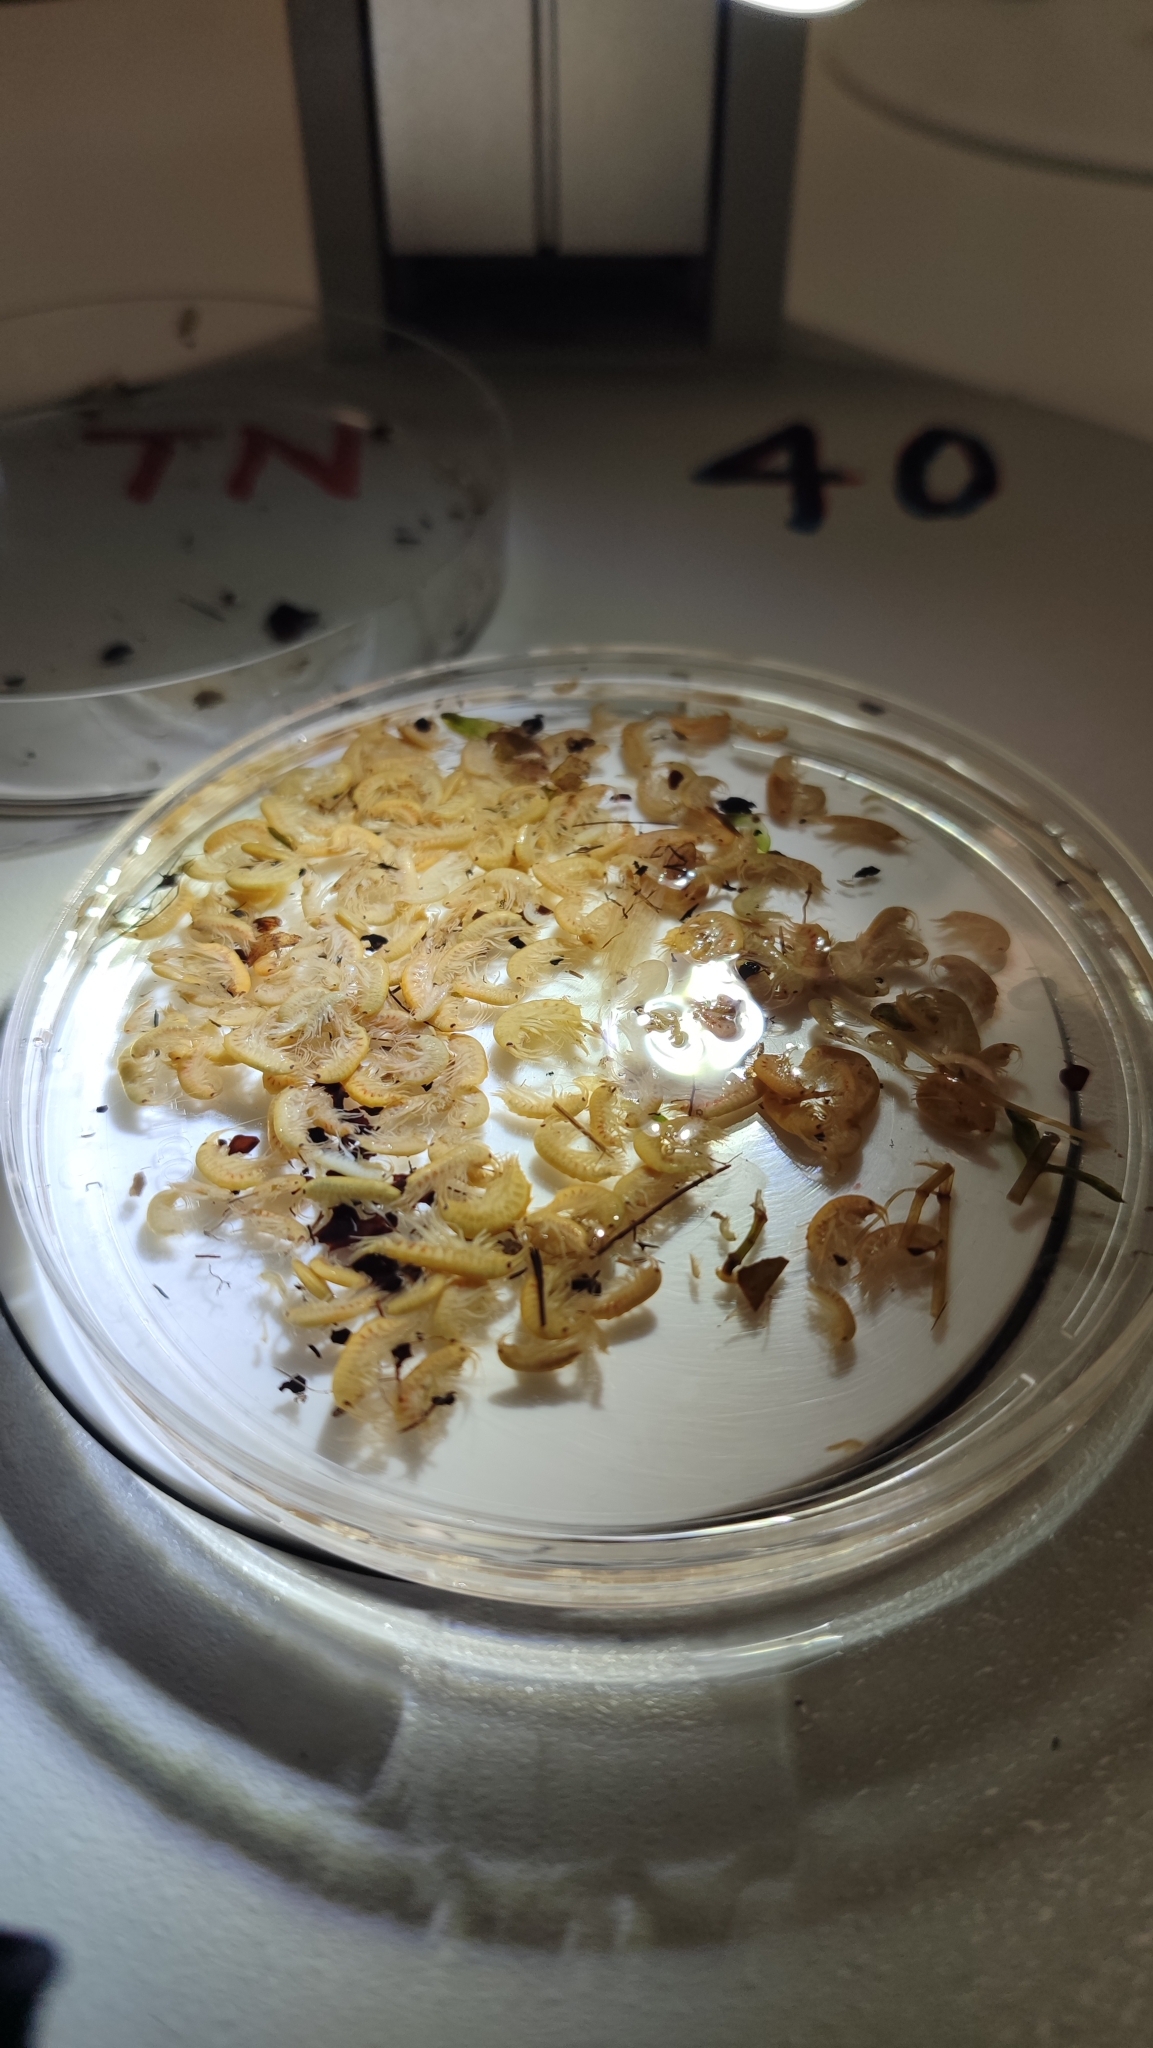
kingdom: Animalia
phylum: Arthropoda
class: Malacostraca
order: Amphipoda
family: Gammaridae
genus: Gammarus
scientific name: Gammarus roeselii
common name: Lacustrine amphipod
